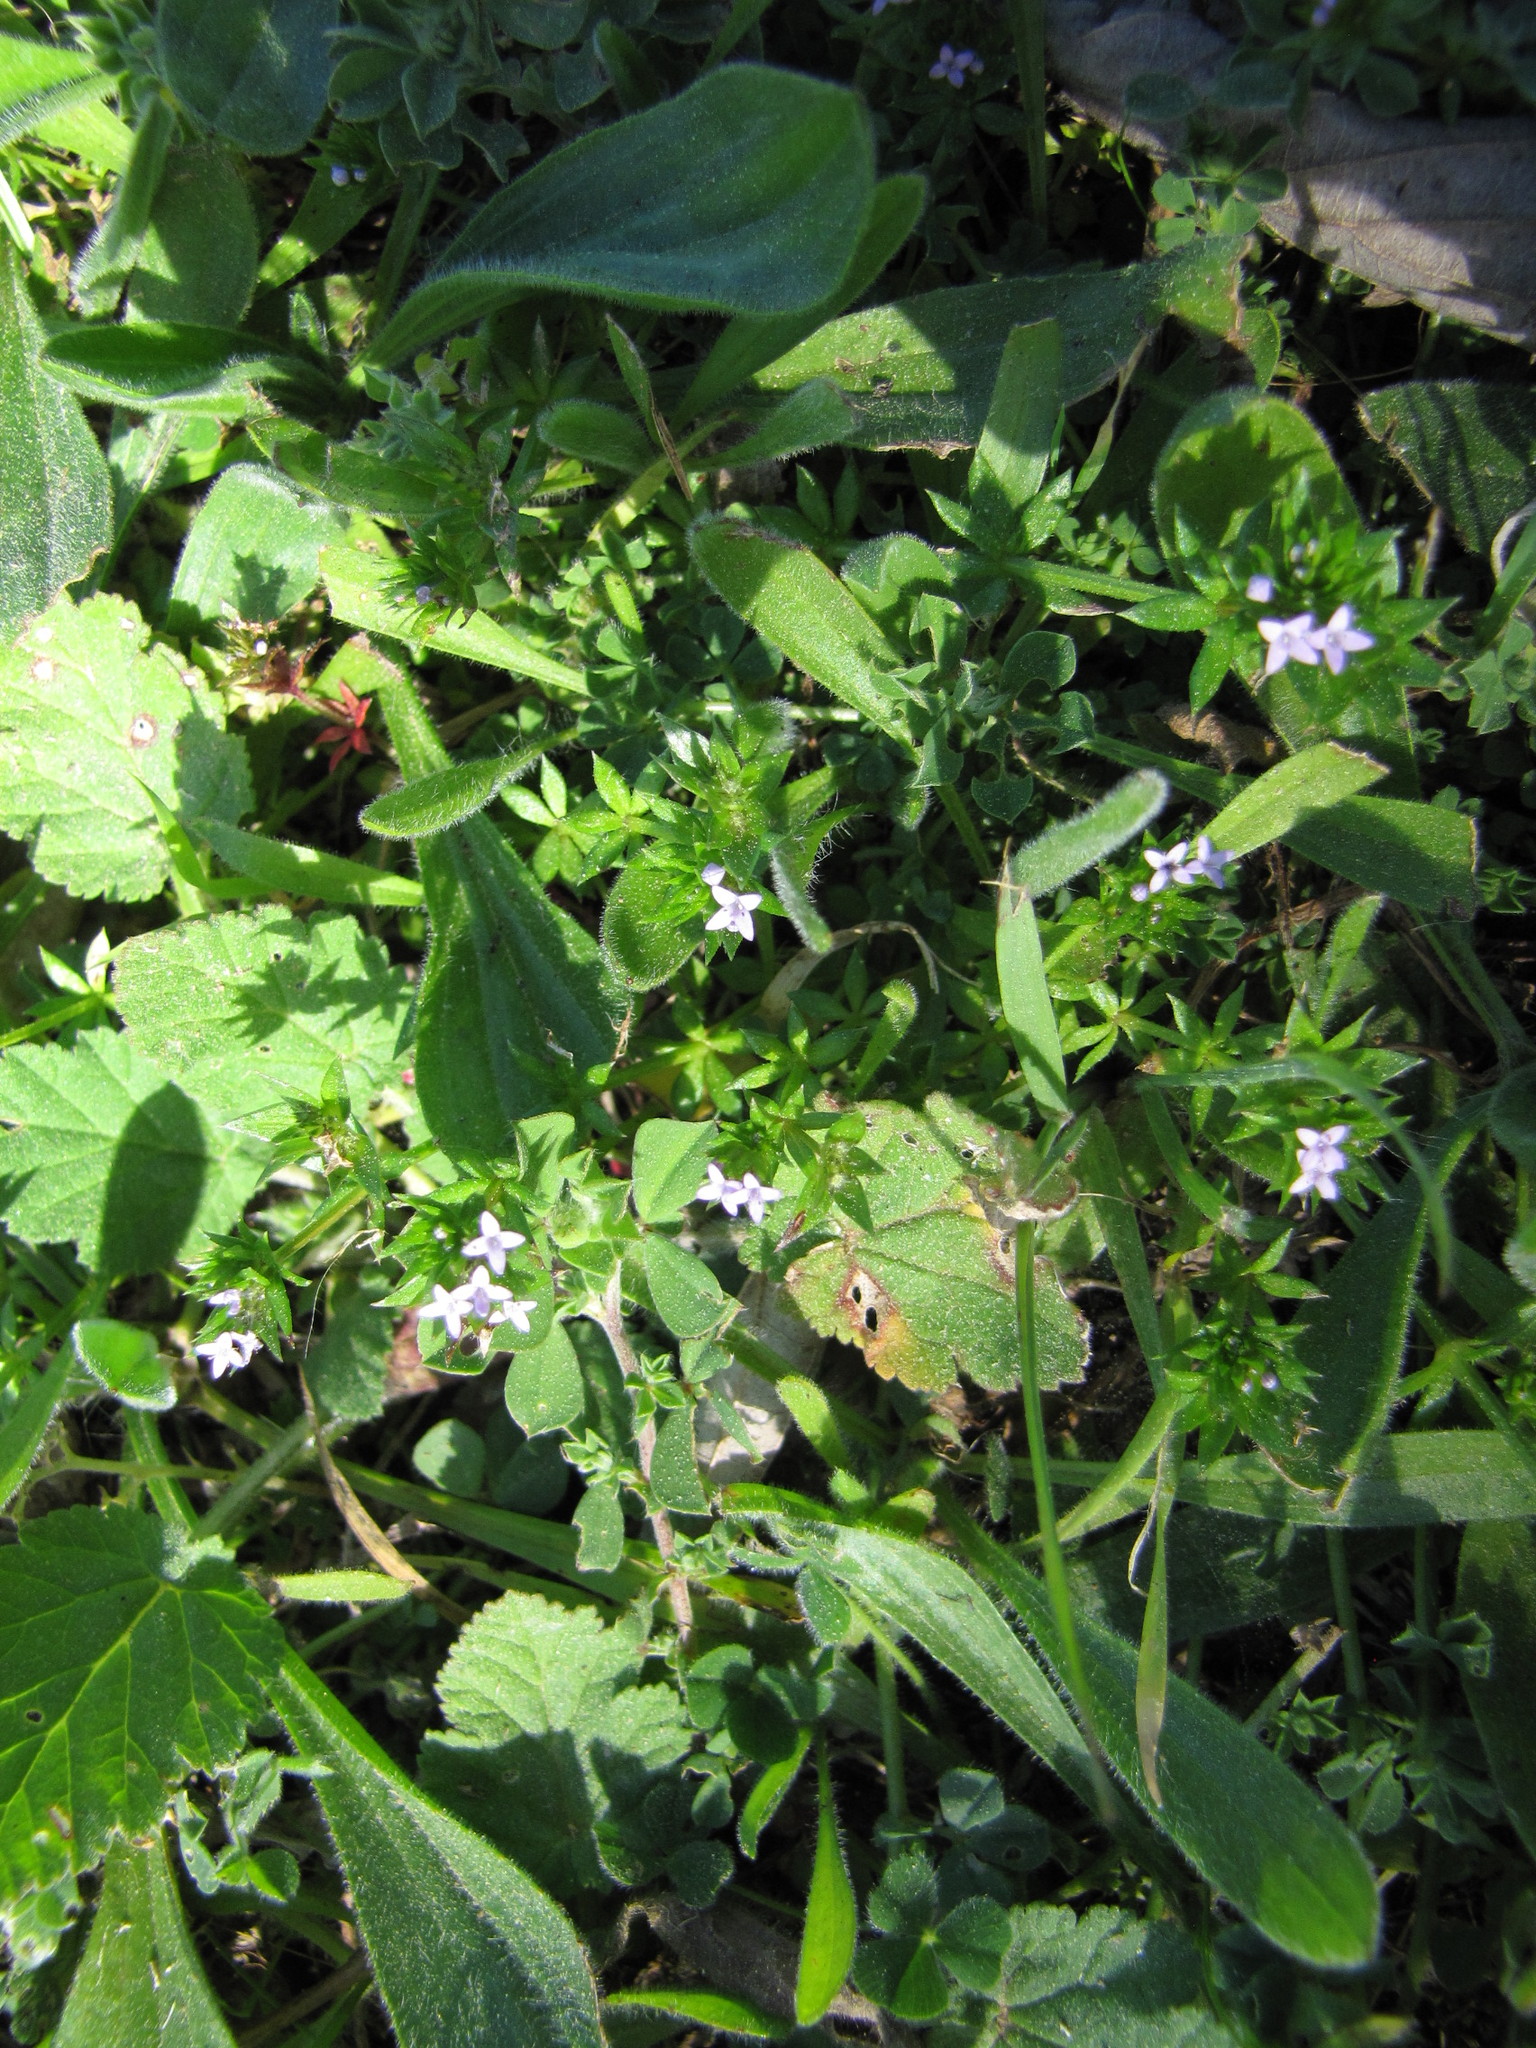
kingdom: Plantae
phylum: Tracheophyta
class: Magnoliopsida
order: Gentianales
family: Rubiaceae
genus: Sherardia
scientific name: Sherardia arvensis
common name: Field madder
